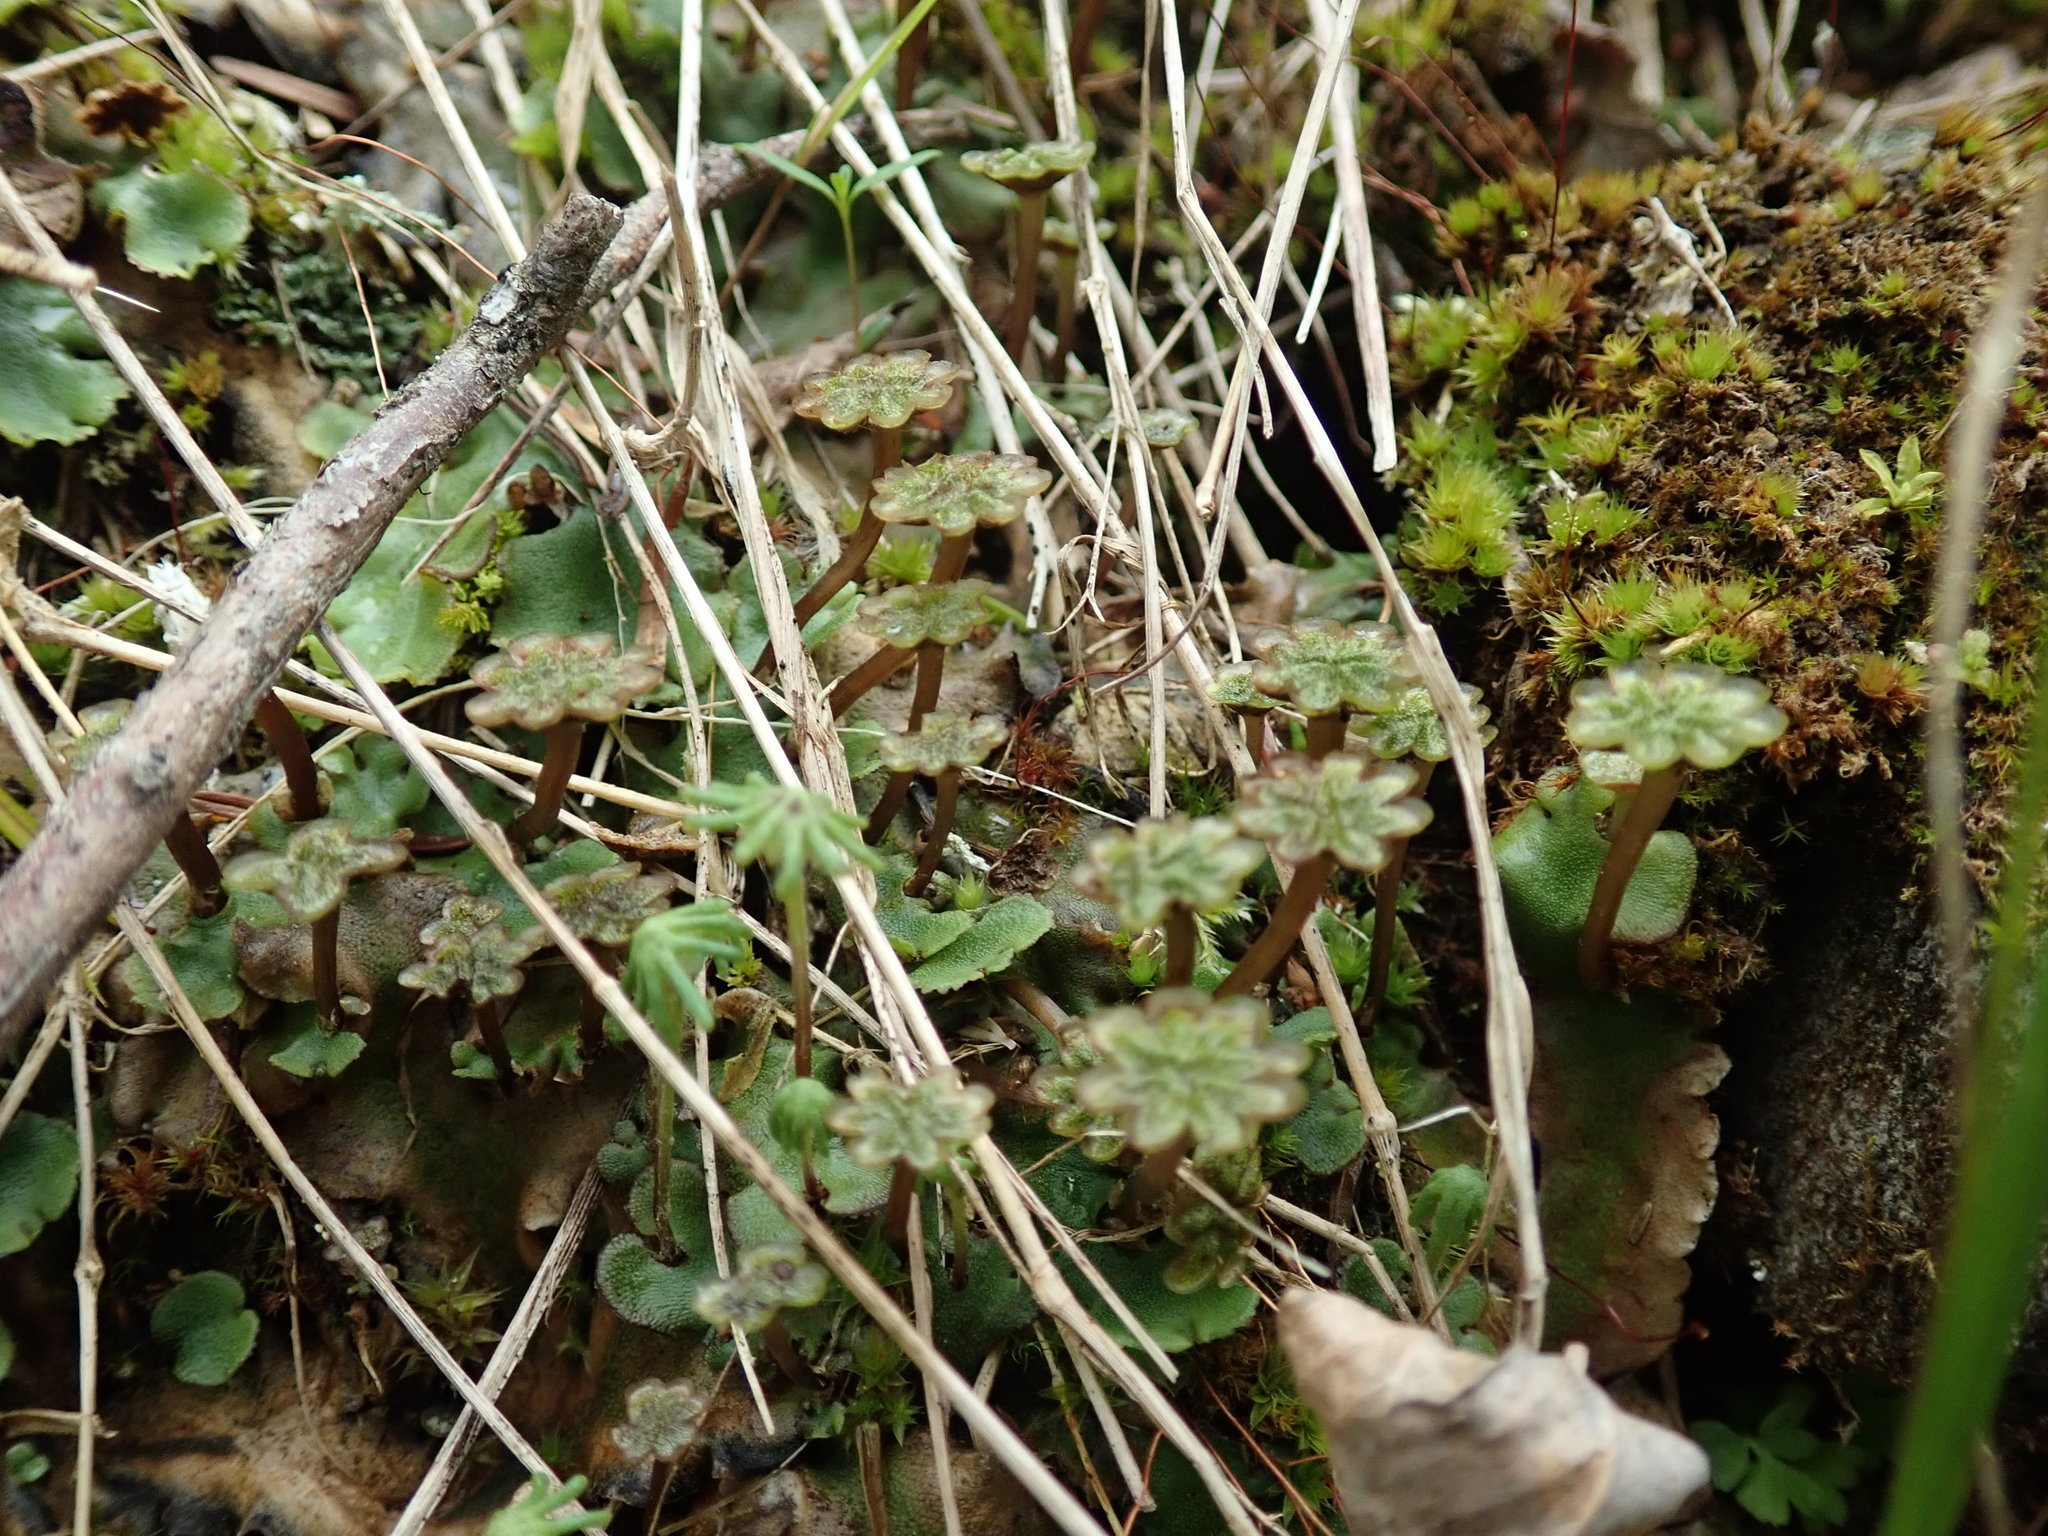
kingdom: Plantae
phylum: Marchantiophyta
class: Marchantiopsida
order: Marchantiales
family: Marchantiaceae
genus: Marchantia
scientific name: Marchantia polymorpha
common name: Common liverwort
